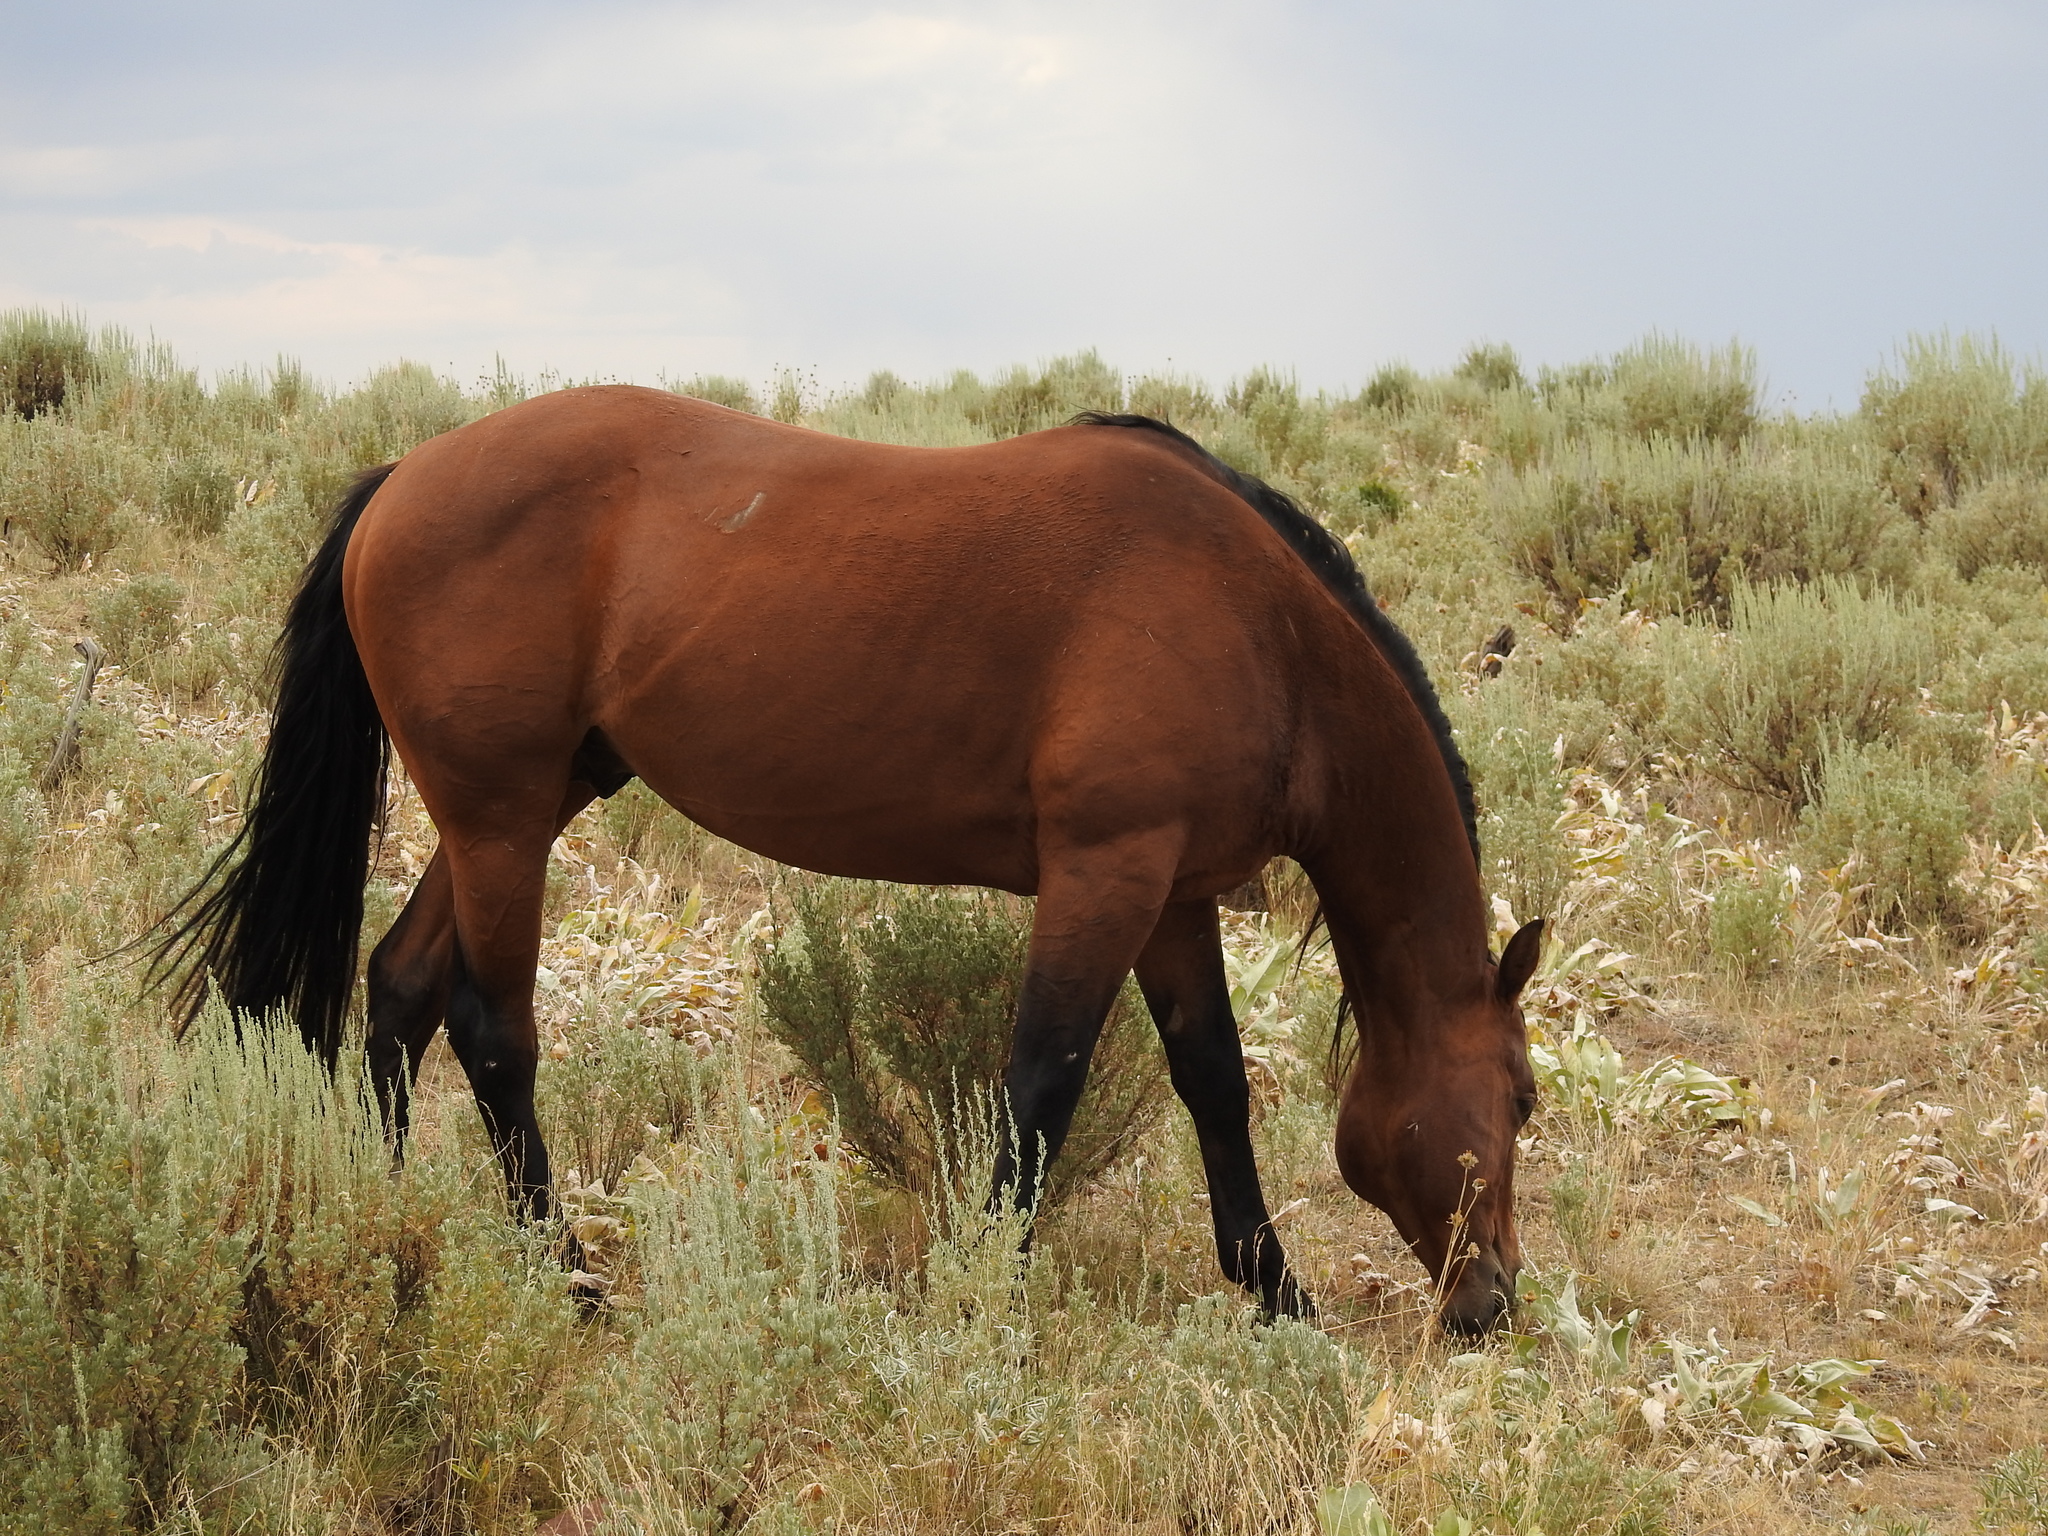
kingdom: Animalia
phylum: Chordata
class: Mammalia
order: Perissodactyla
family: Equidae
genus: Equus
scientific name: Equus caballus
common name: Horse
